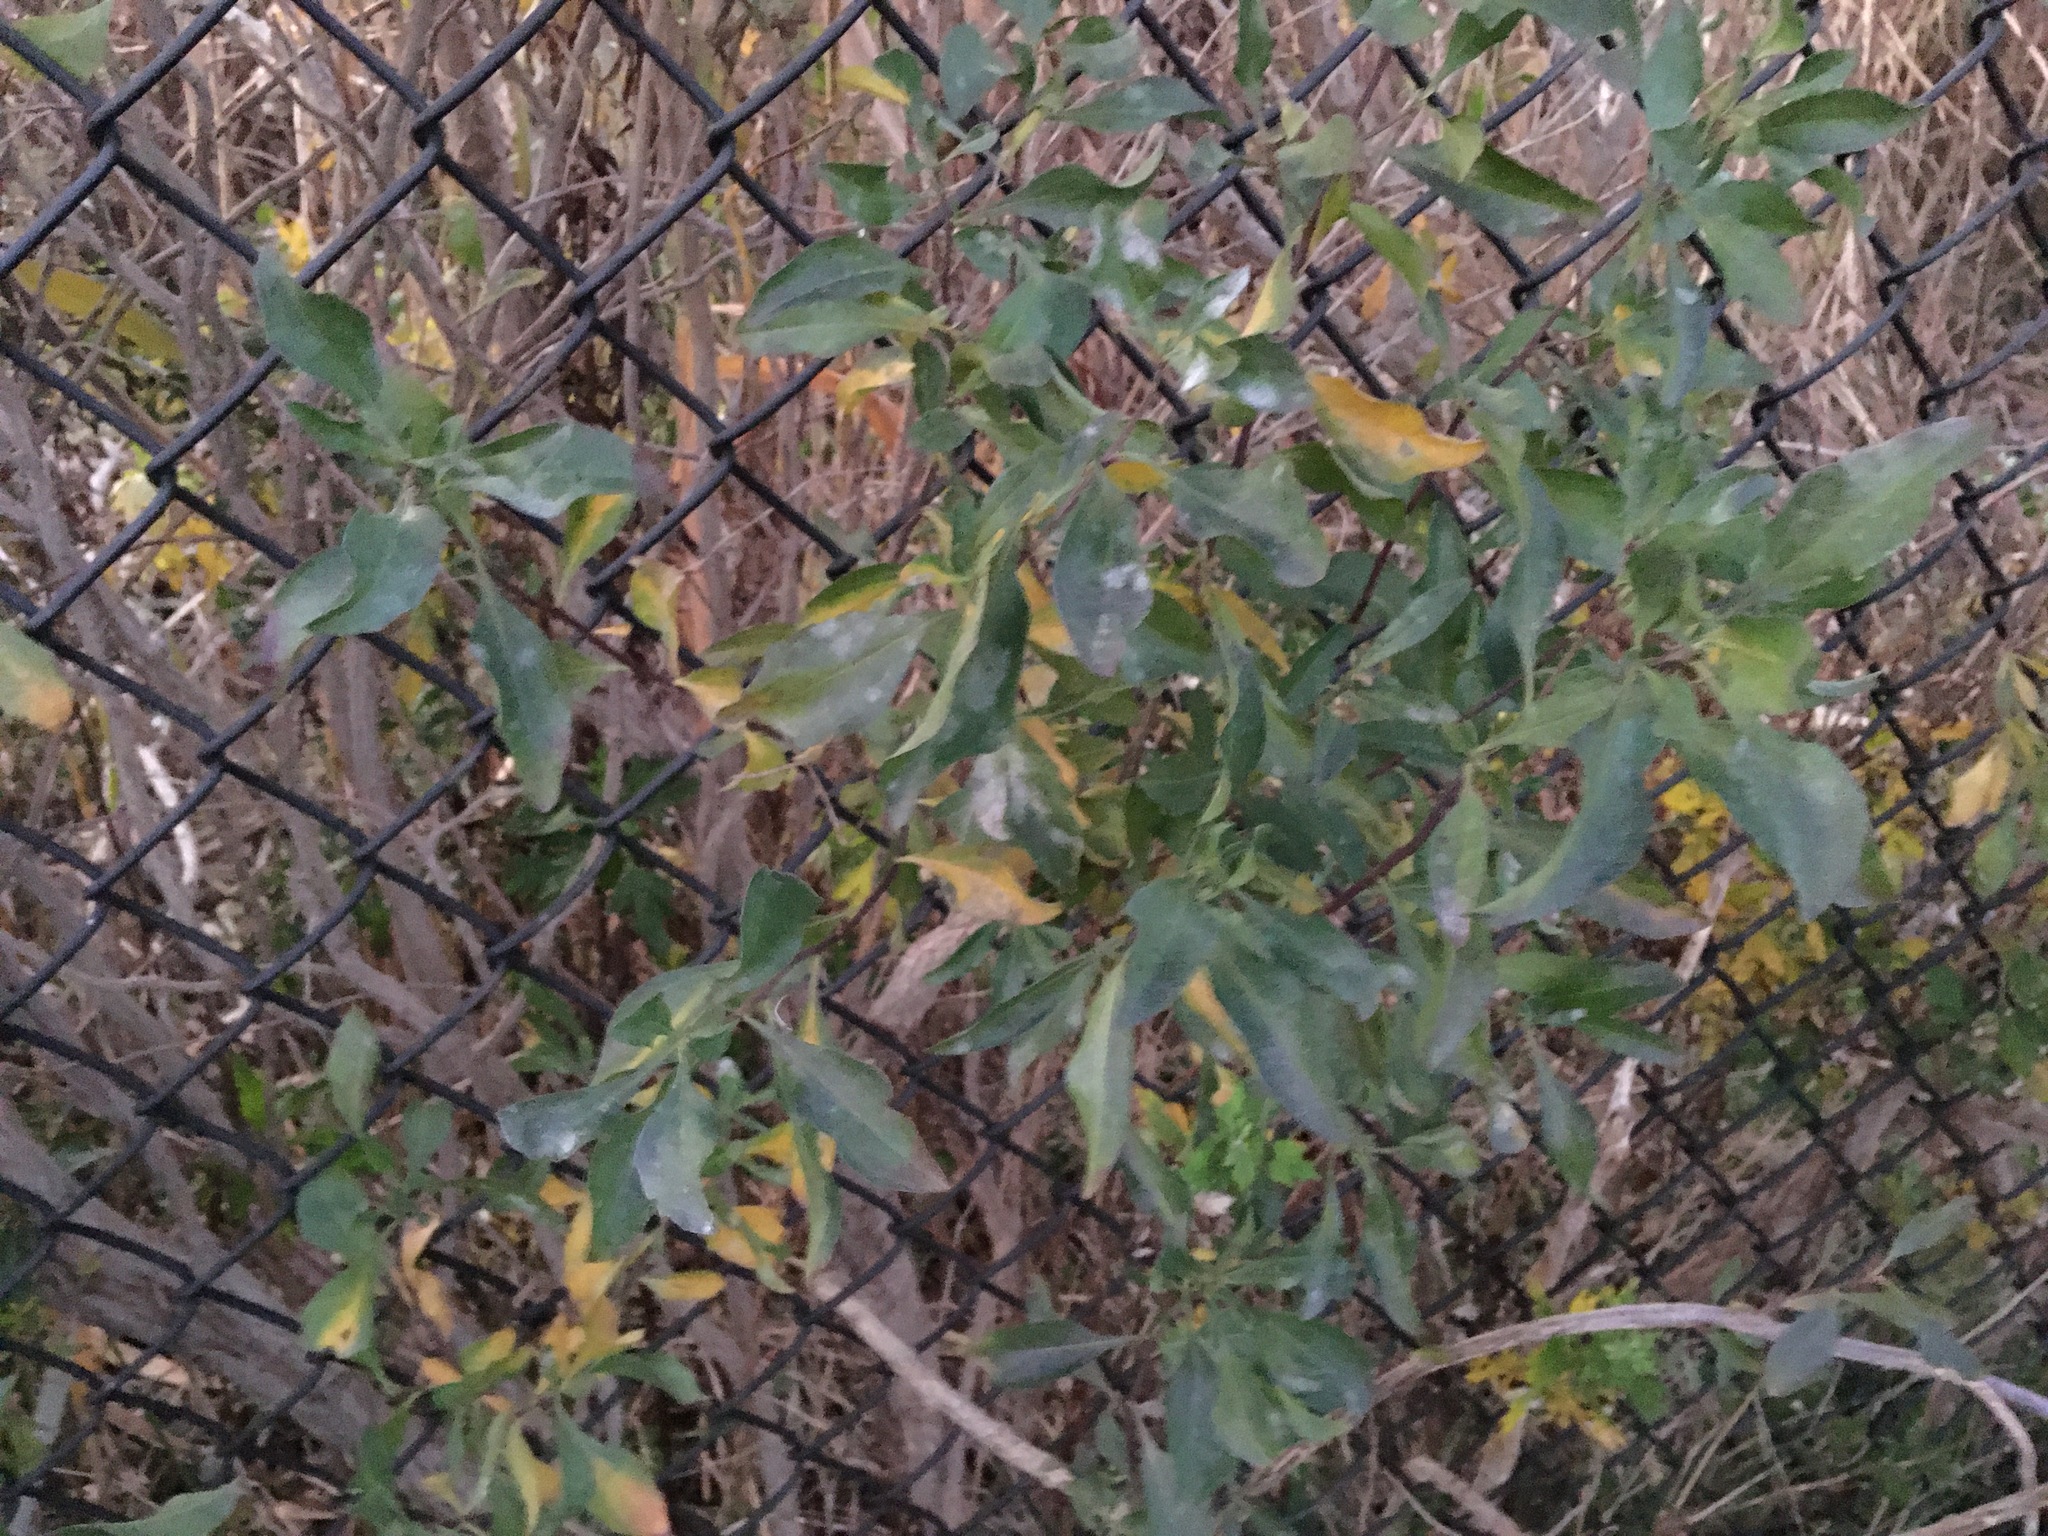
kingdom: Plantae
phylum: Tracheophyta
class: Magnoliopsida
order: Asterales
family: Asteraceae
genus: Baccharis
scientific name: Baccharis halimifolia
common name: Eastern baccharis
